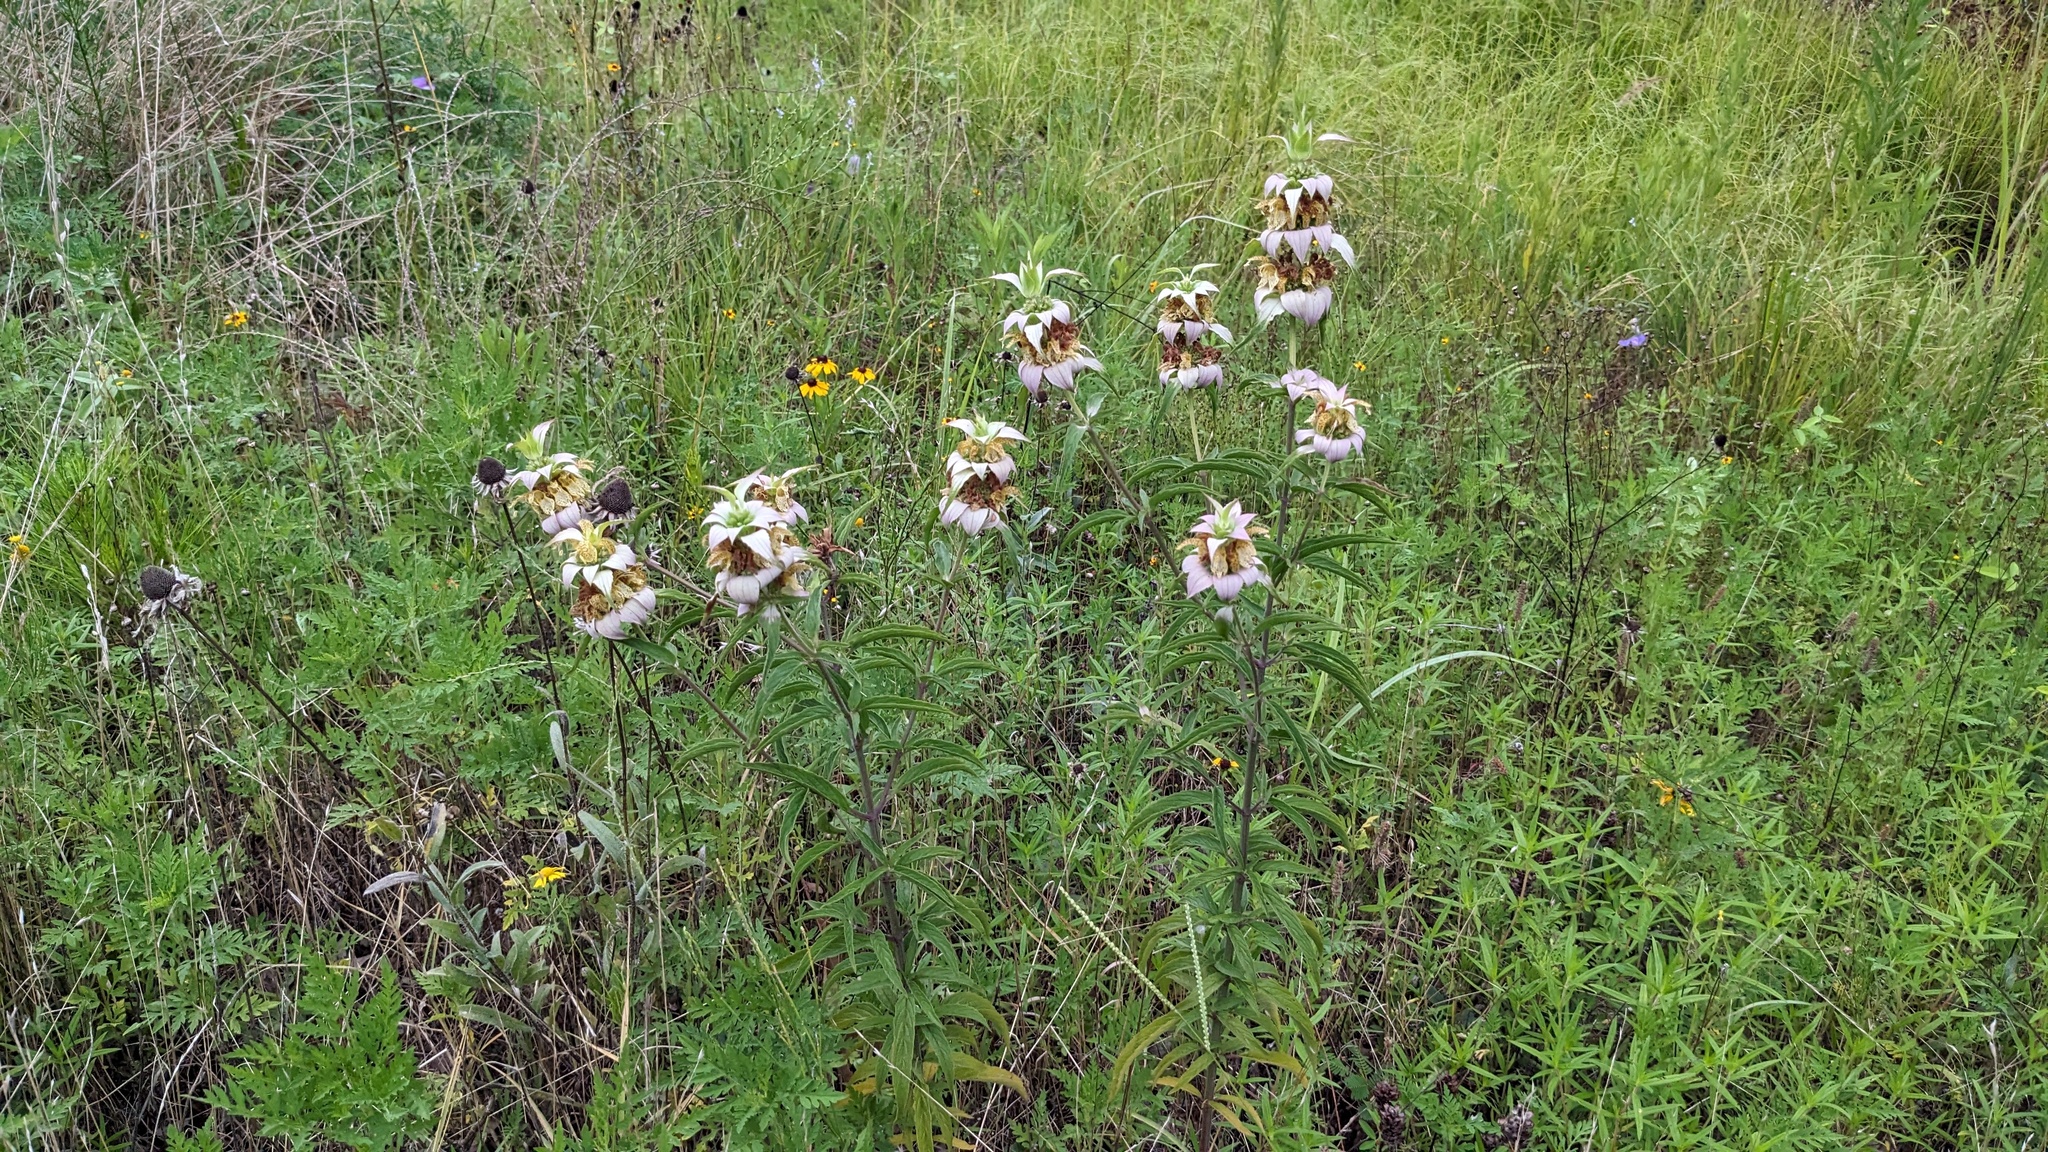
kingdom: Plantae
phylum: Tracheophyta
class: Magnoliopsida
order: Lamiales
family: Lamiaceae
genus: Monarda
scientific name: Monarda punctata
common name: Dotted monarda
